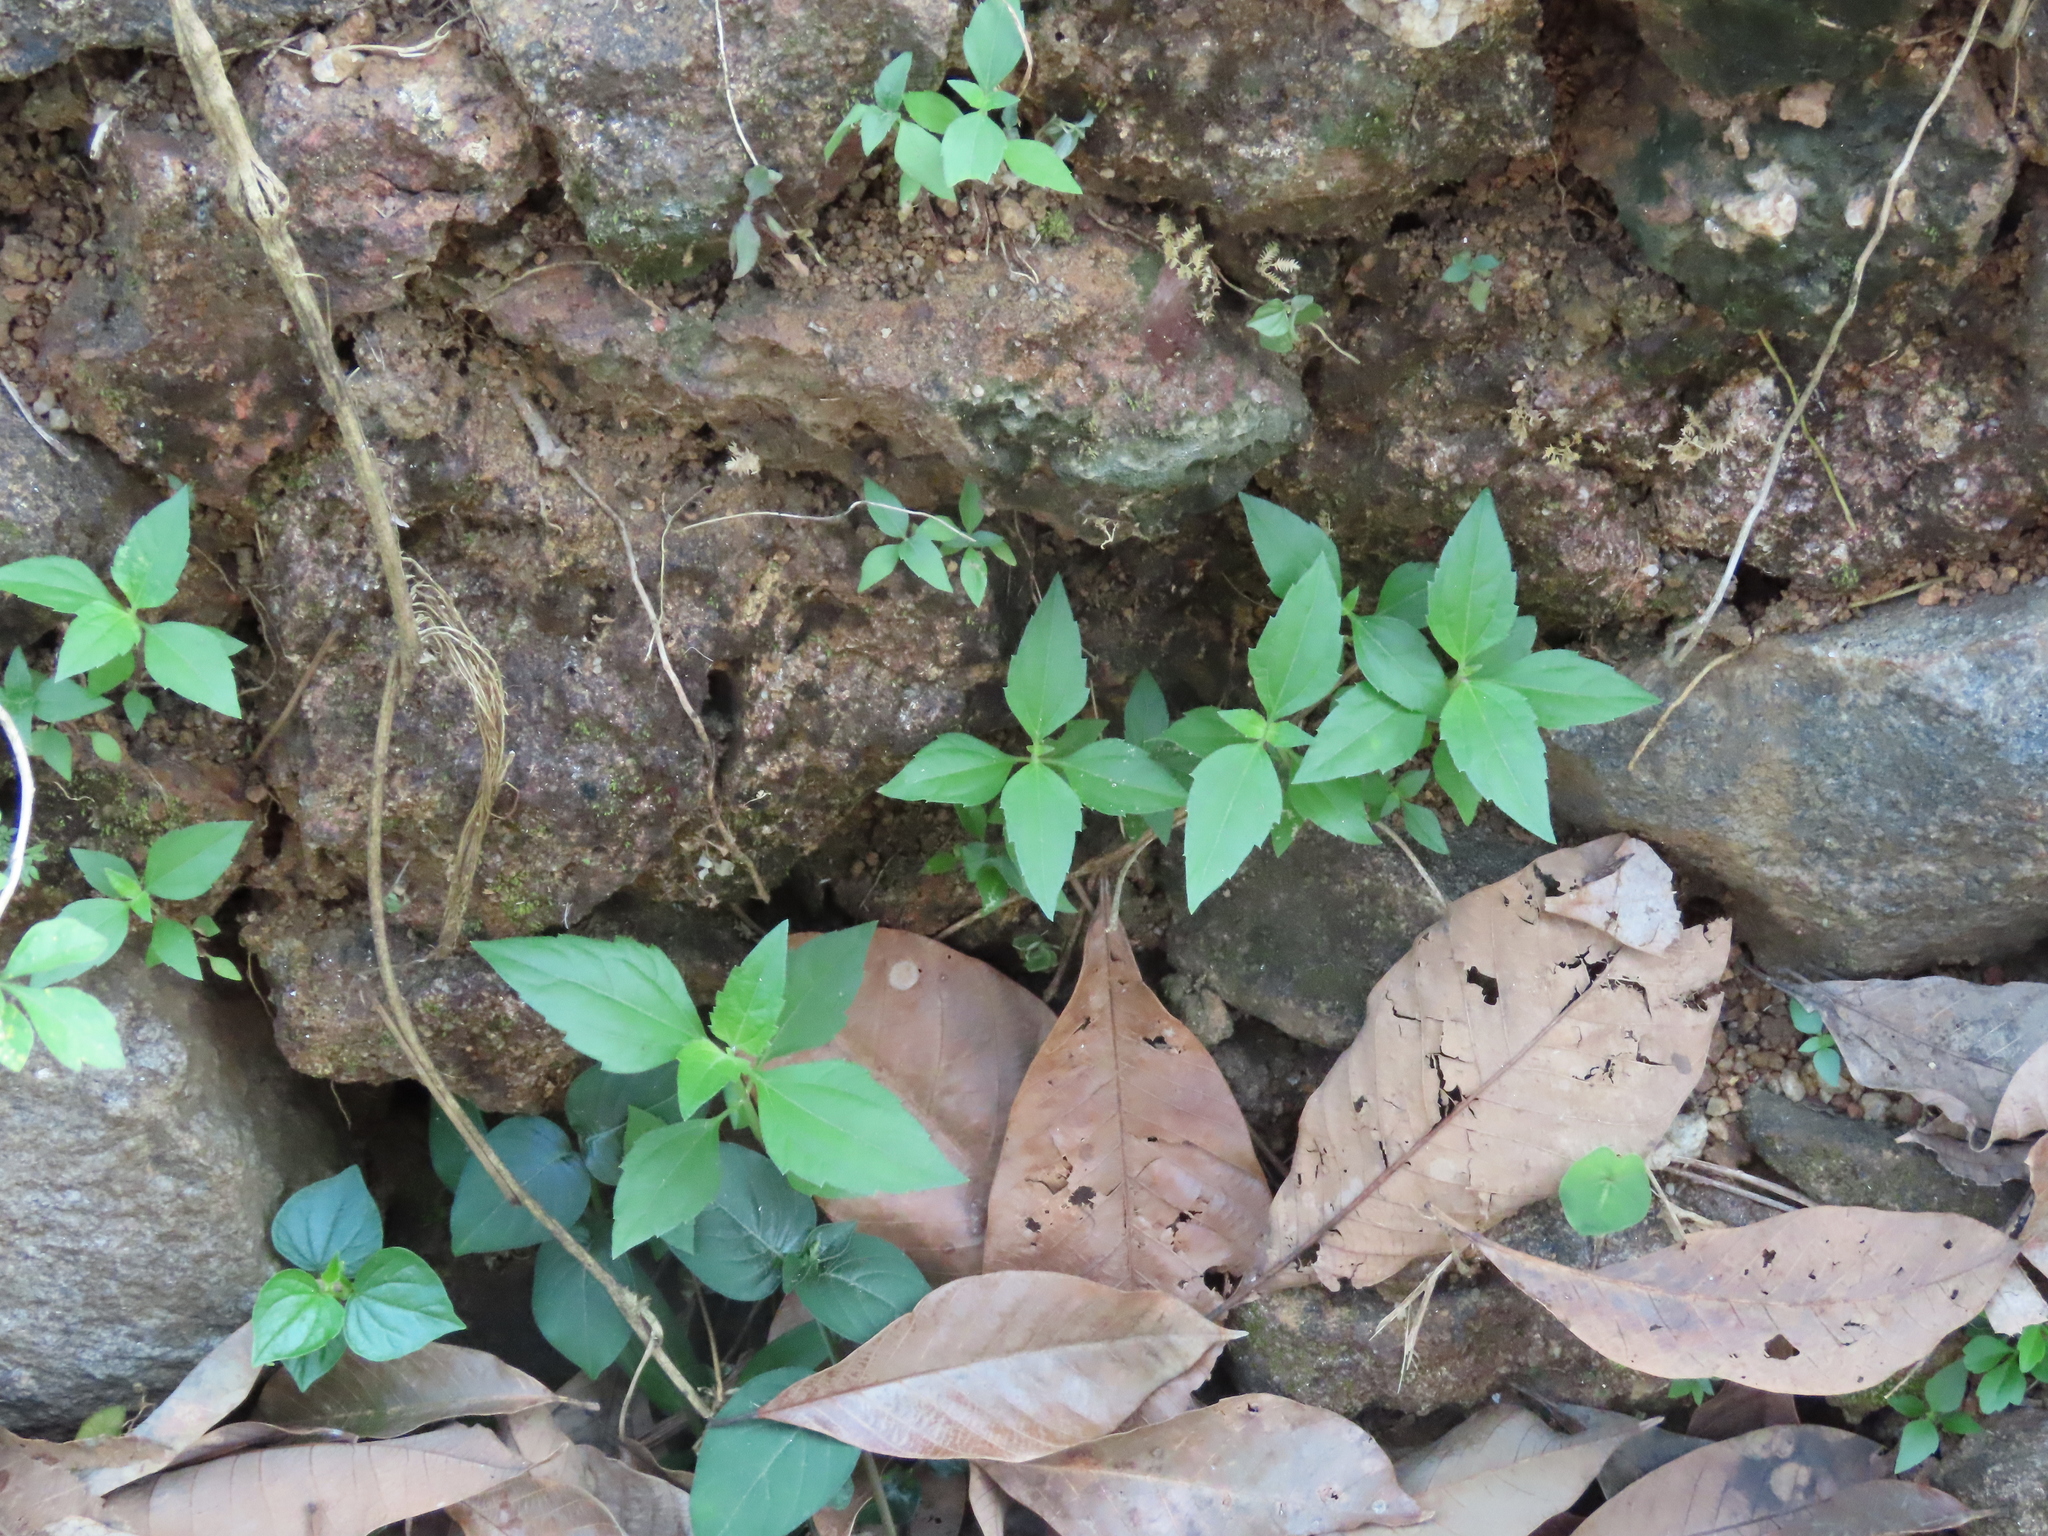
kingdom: Plantae
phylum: Tracheophyta
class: Magnoliopsida
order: Asterales
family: Asteraceae
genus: Chromolaena
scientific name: Chromolaena odorata
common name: Siamweed
